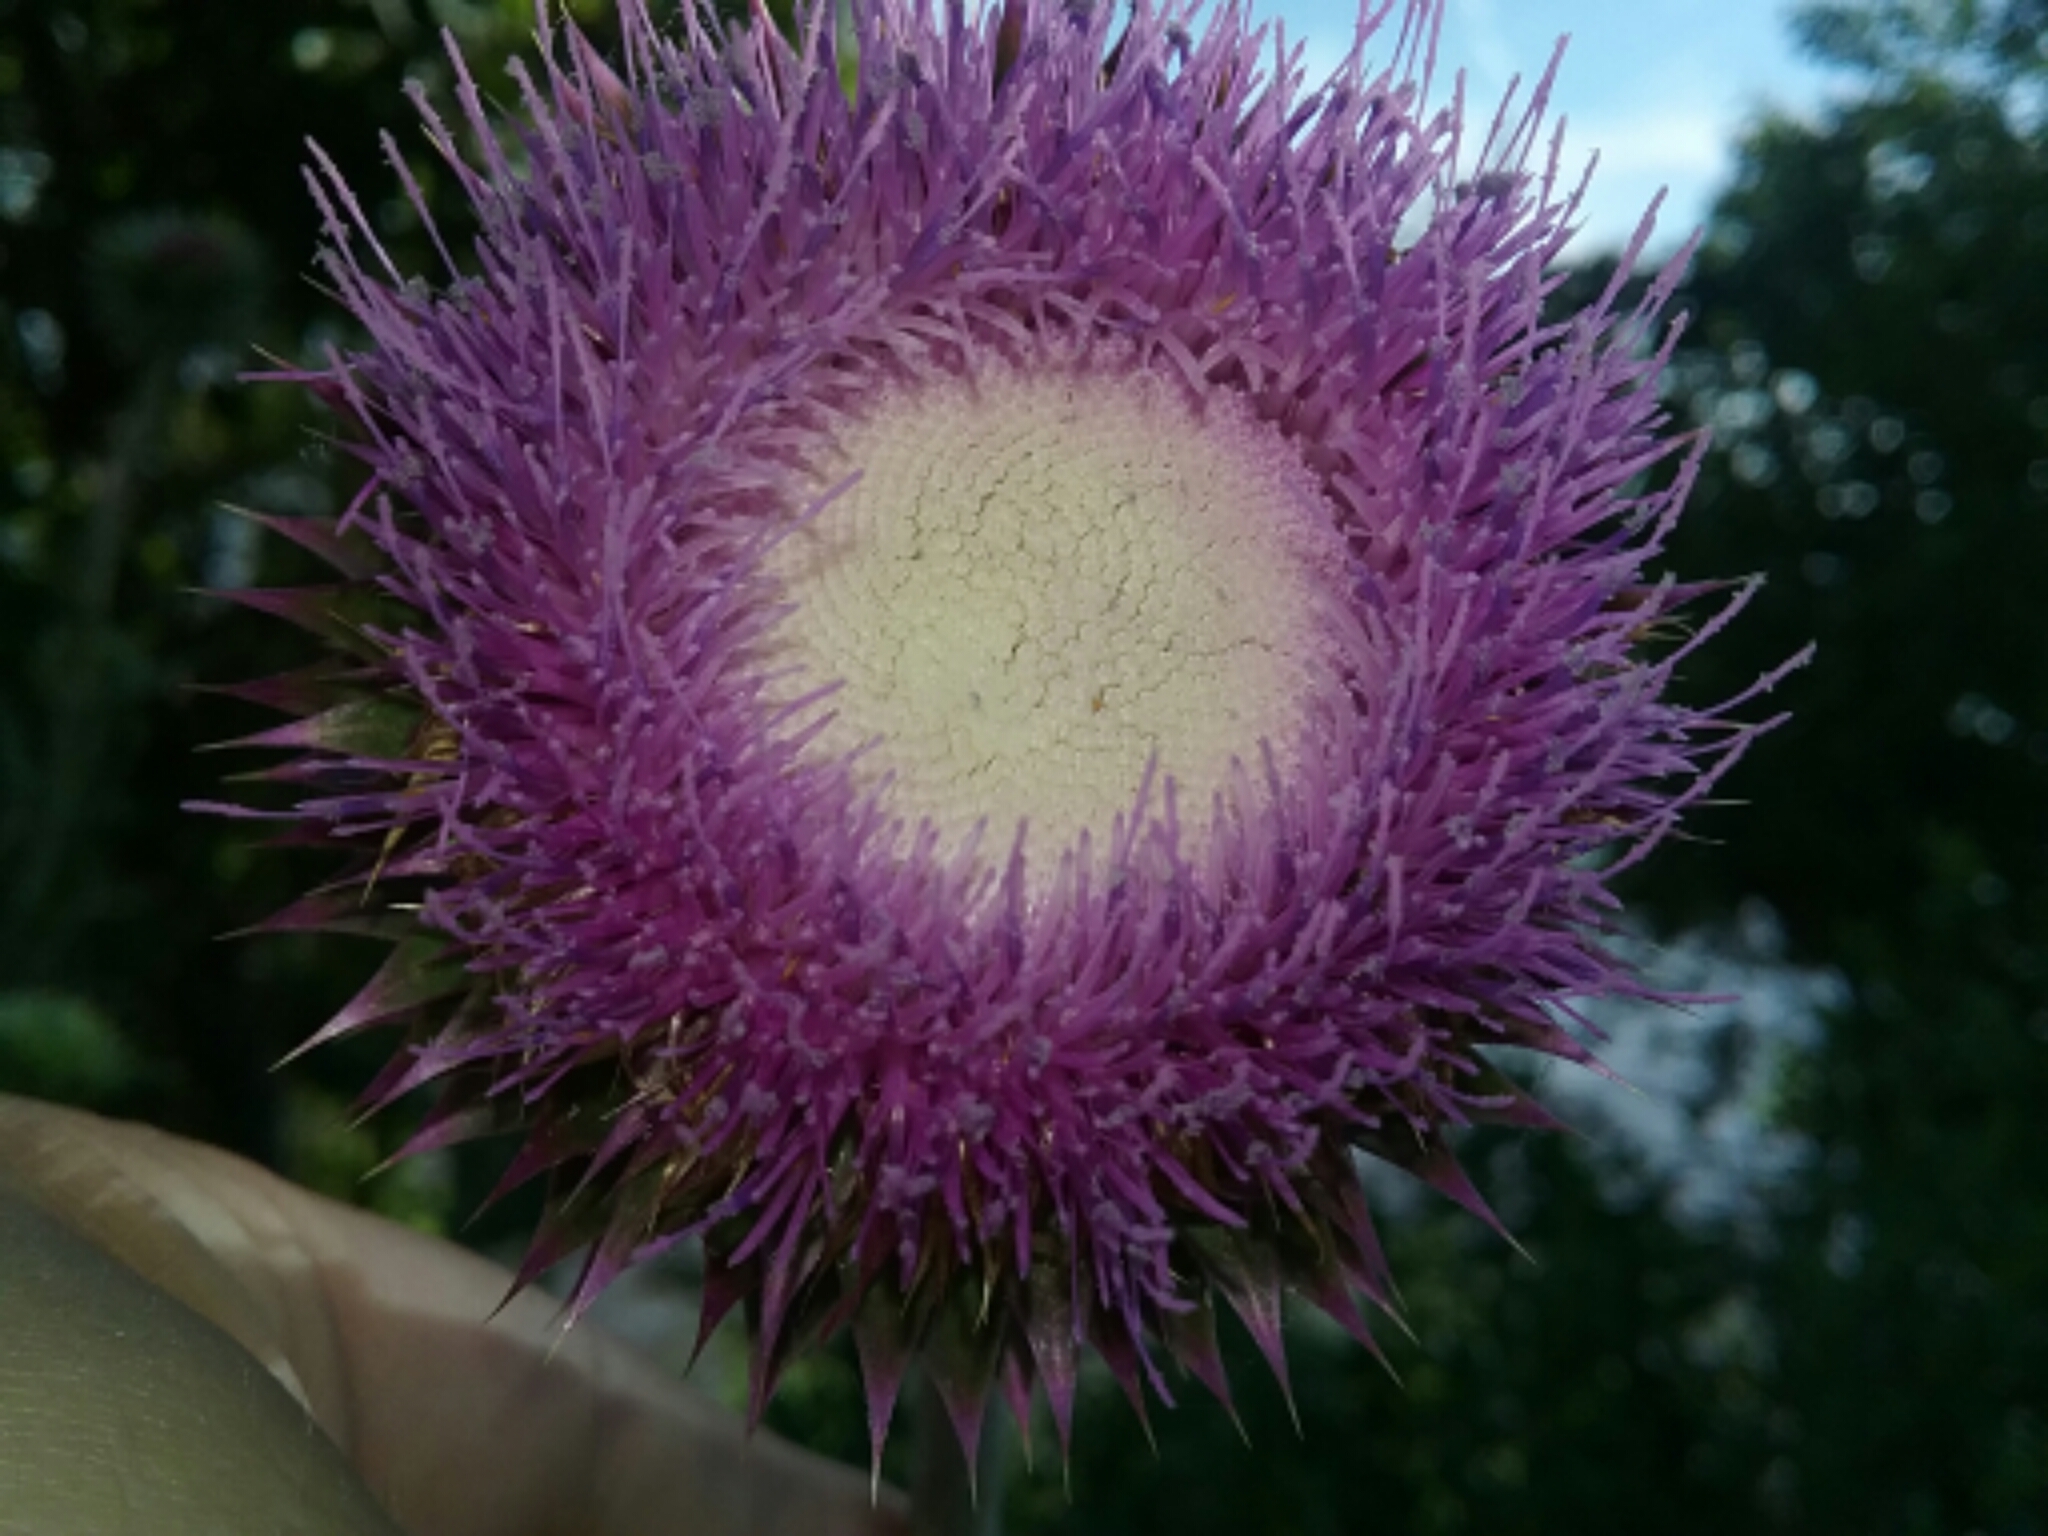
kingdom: Plantae
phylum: Tracheophyta
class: Magnoliopsida
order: Asterales
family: Asteraceae
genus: Carduus
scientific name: Carduus nutans
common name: Musk thistle
